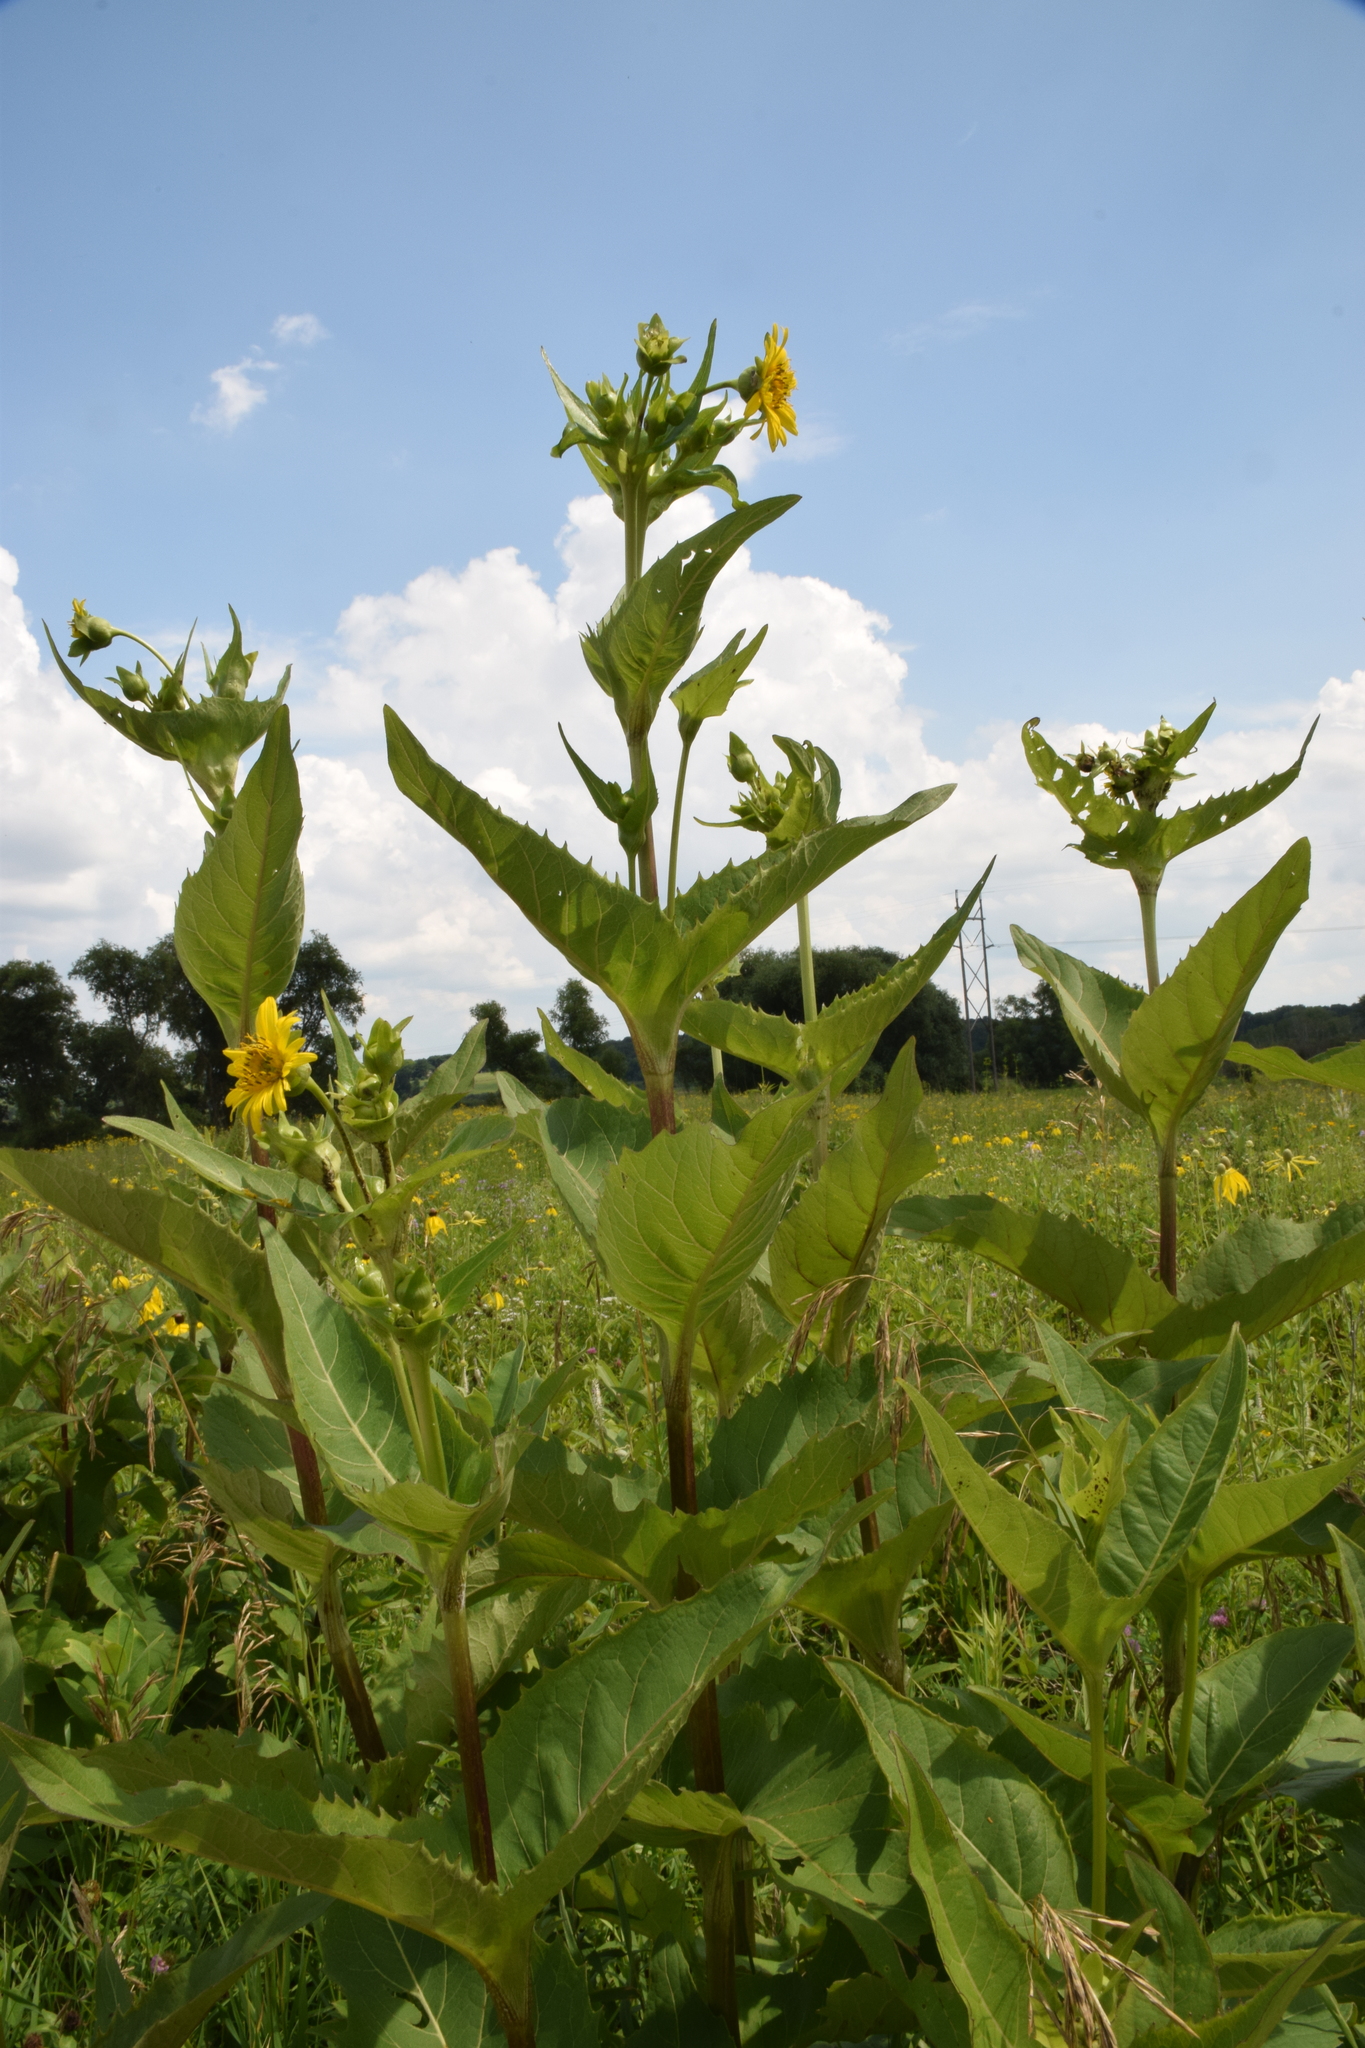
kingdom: Plantae
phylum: Tracheophyta
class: Magnoliopsida
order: Asterales
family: Asteraceae
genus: Silphium
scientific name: Silphium perfoliatum
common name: Cup-plant
